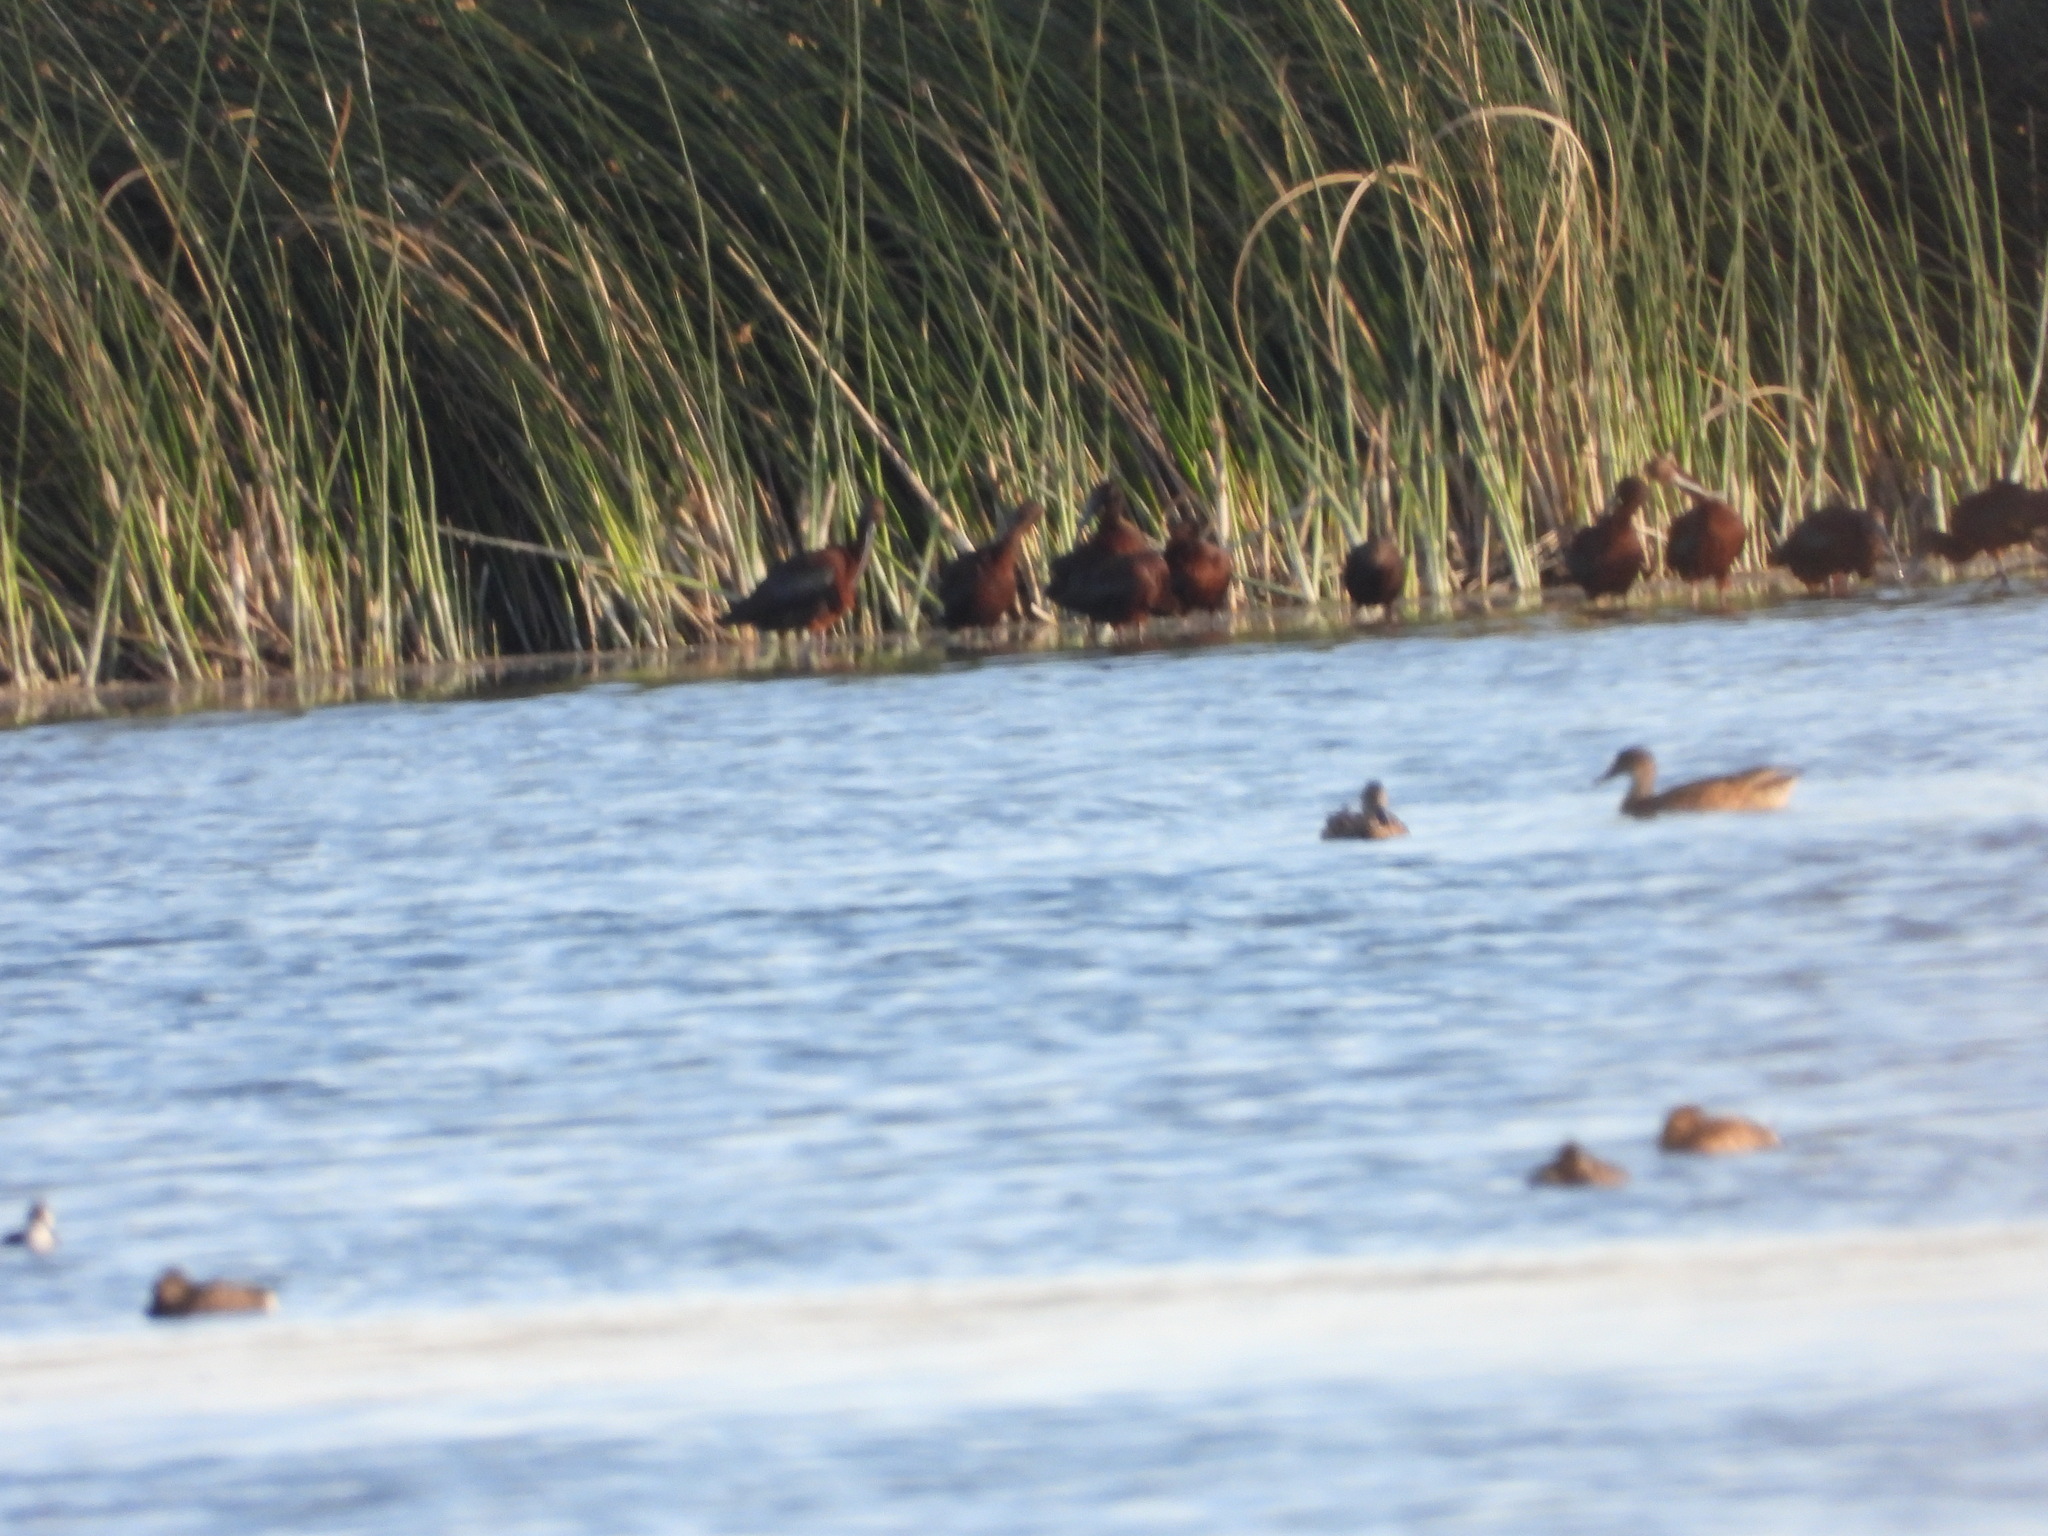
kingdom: Animalia
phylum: Chordata
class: Aves
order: Pelecaniformes
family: Threskiornithidae
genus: Plegadis
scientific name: Plegadis chihi
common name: White-faced ibis
